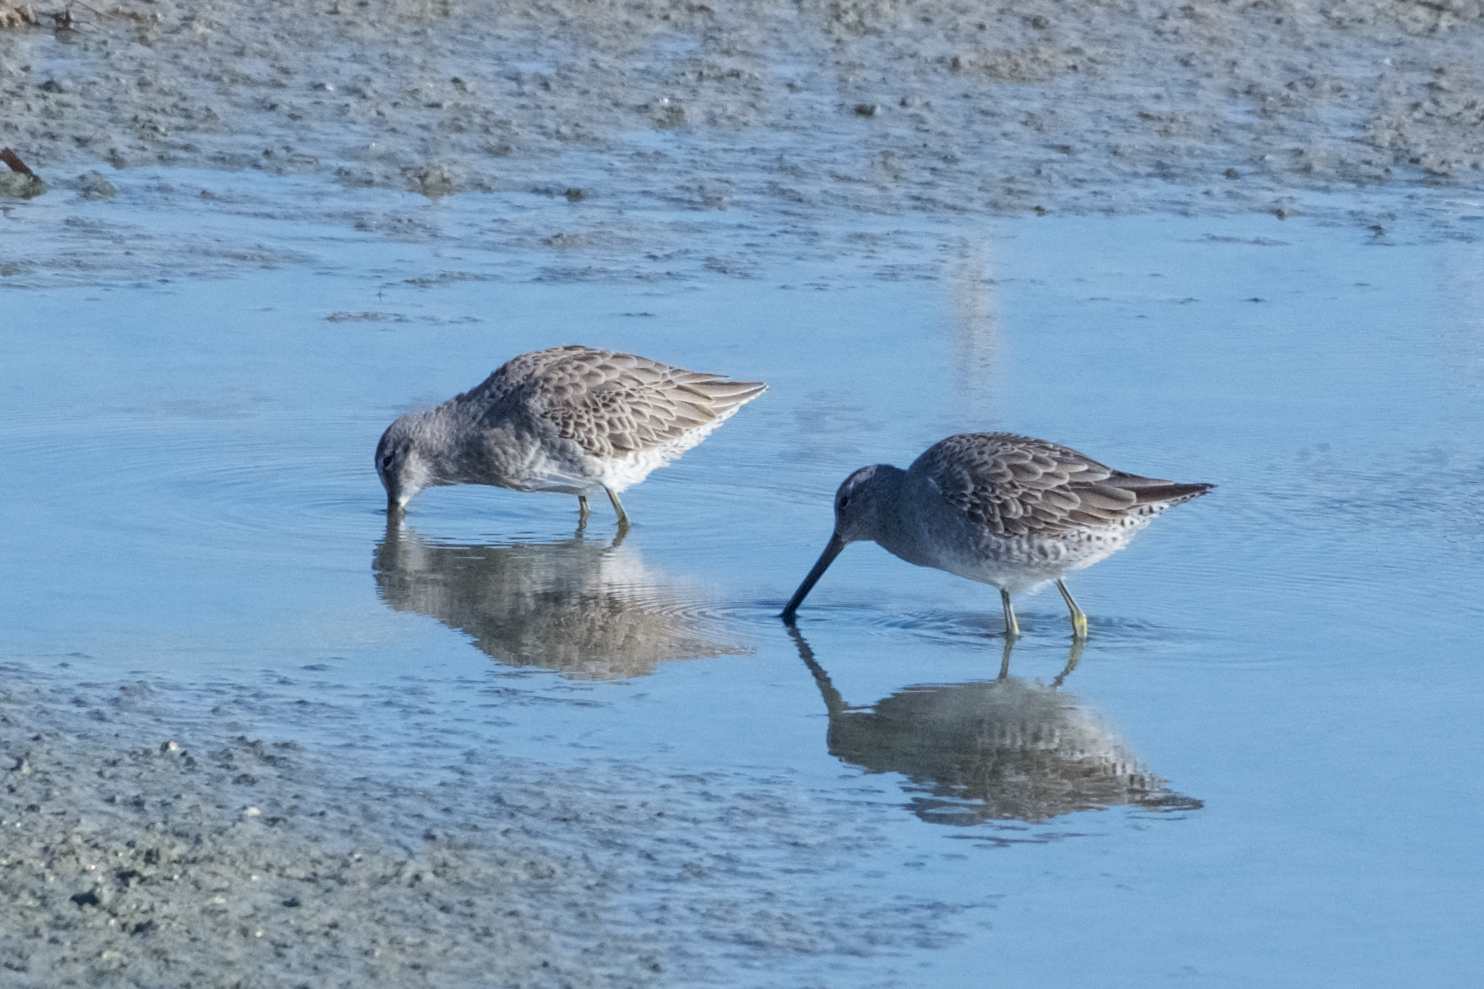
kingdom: Animalia
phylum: Chordata
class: Aves
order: Charadriiformes
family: Scolopacidae
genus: Limnodromus
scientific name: Limnodromus scolopaceus
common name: Long-billed dowitcher
